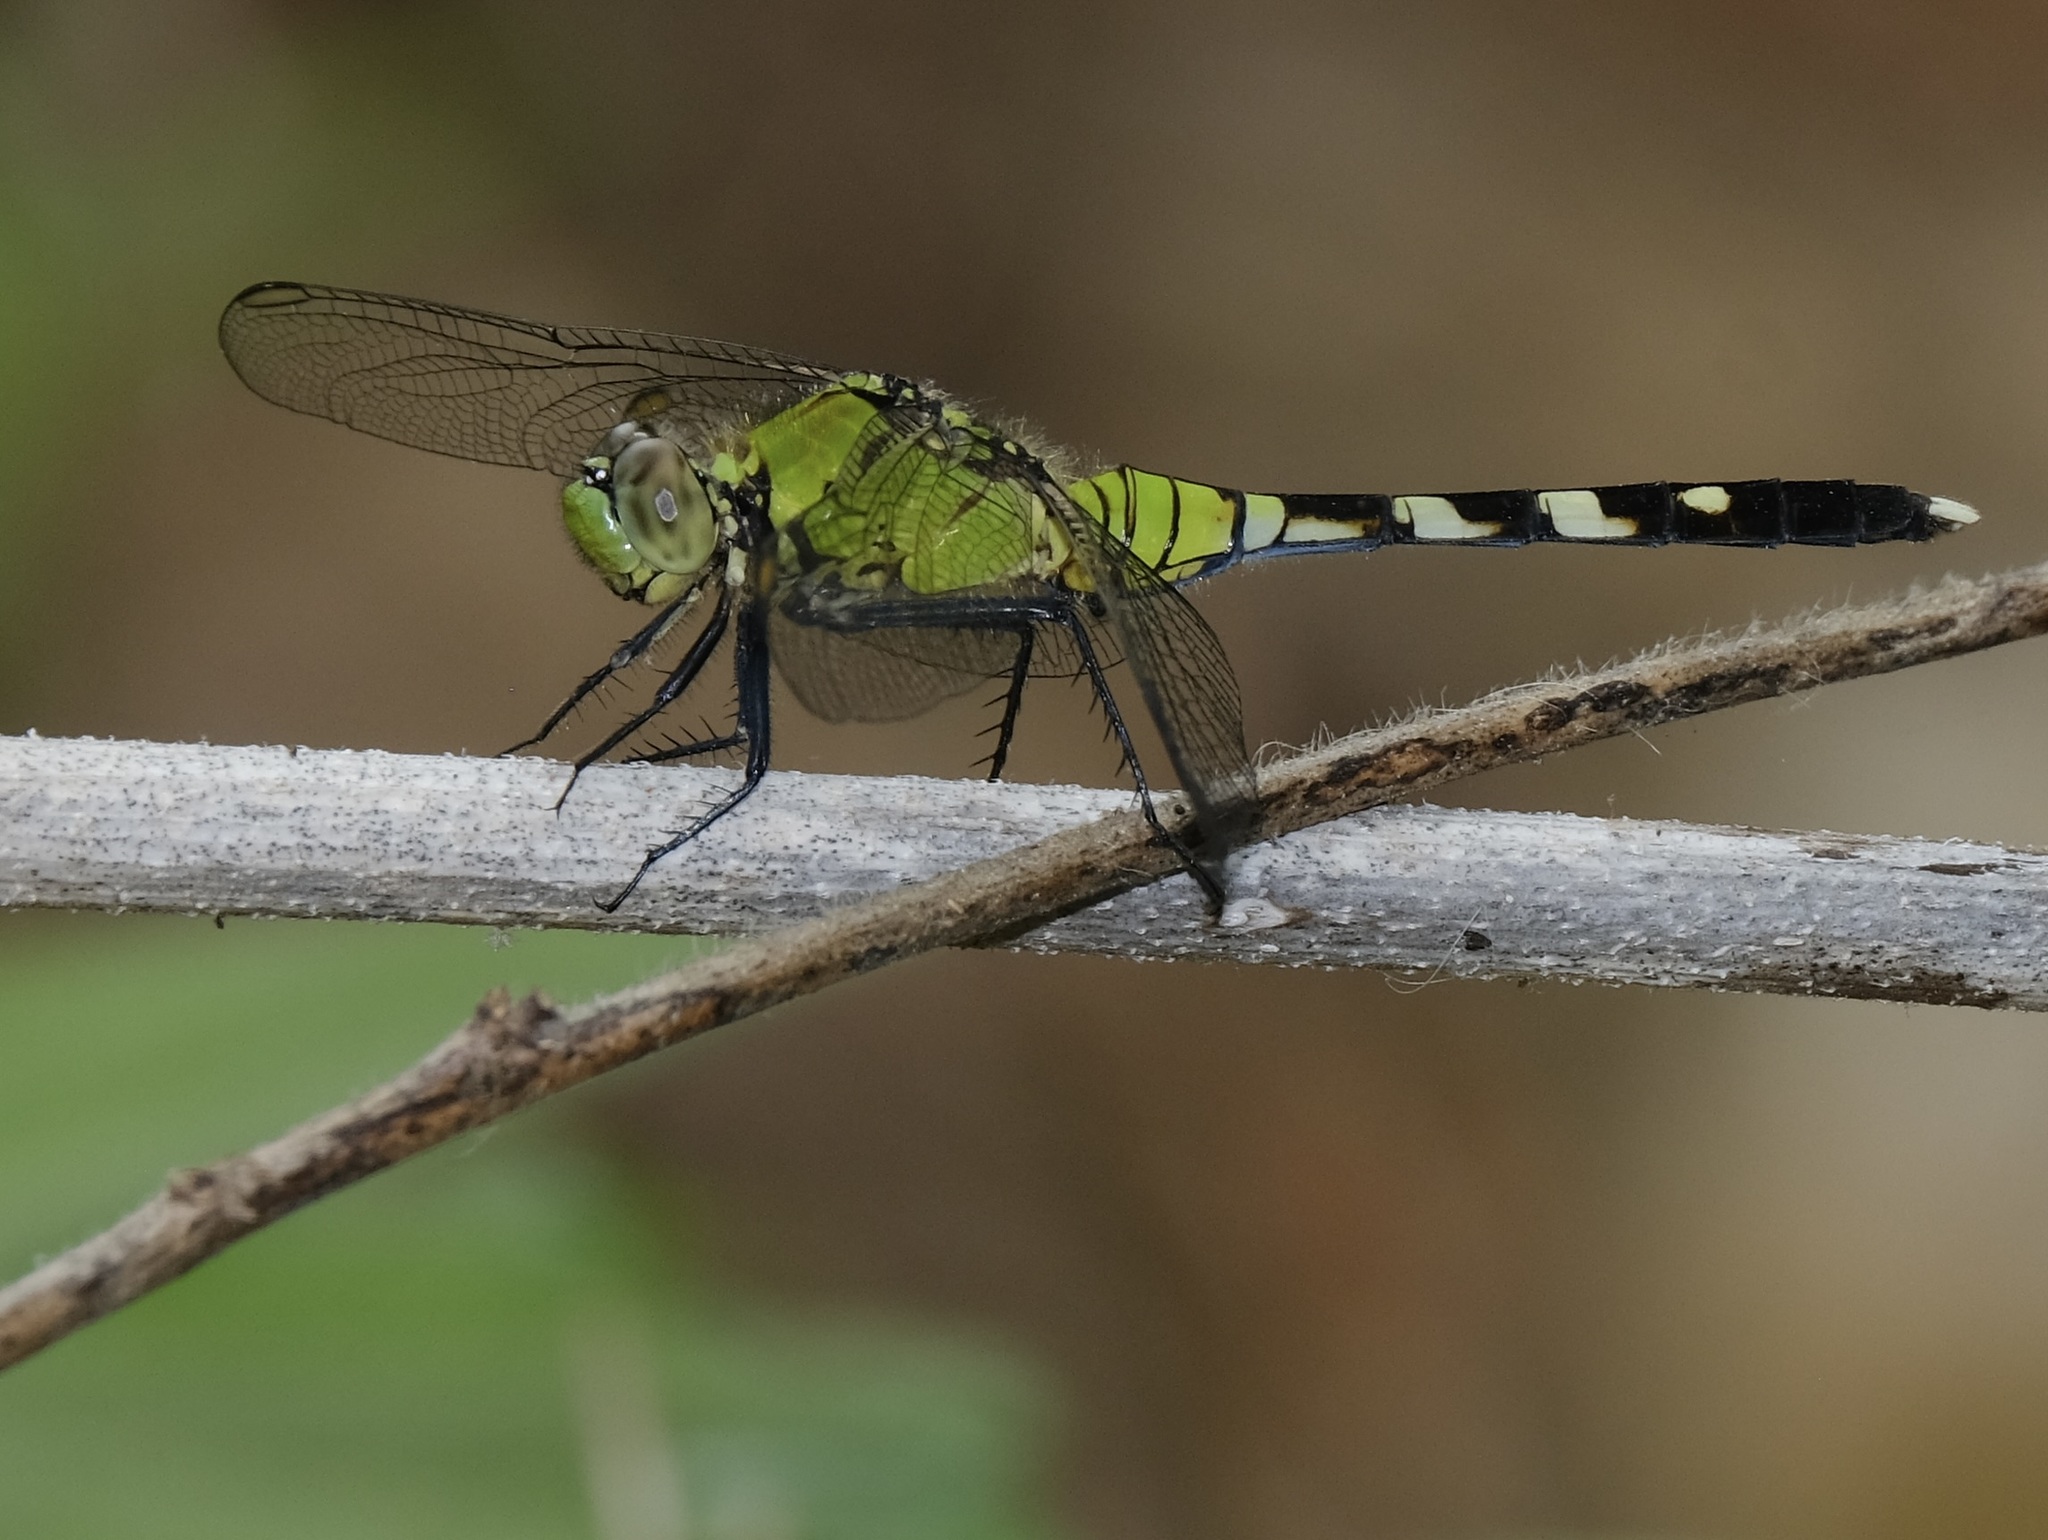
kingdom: Animalia
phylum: Arthropoda
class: Insecta
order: Odonata
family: Libellulidae
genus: Erythemis
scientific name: Erythemis simplicicollis
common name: Eastern pondhawk
